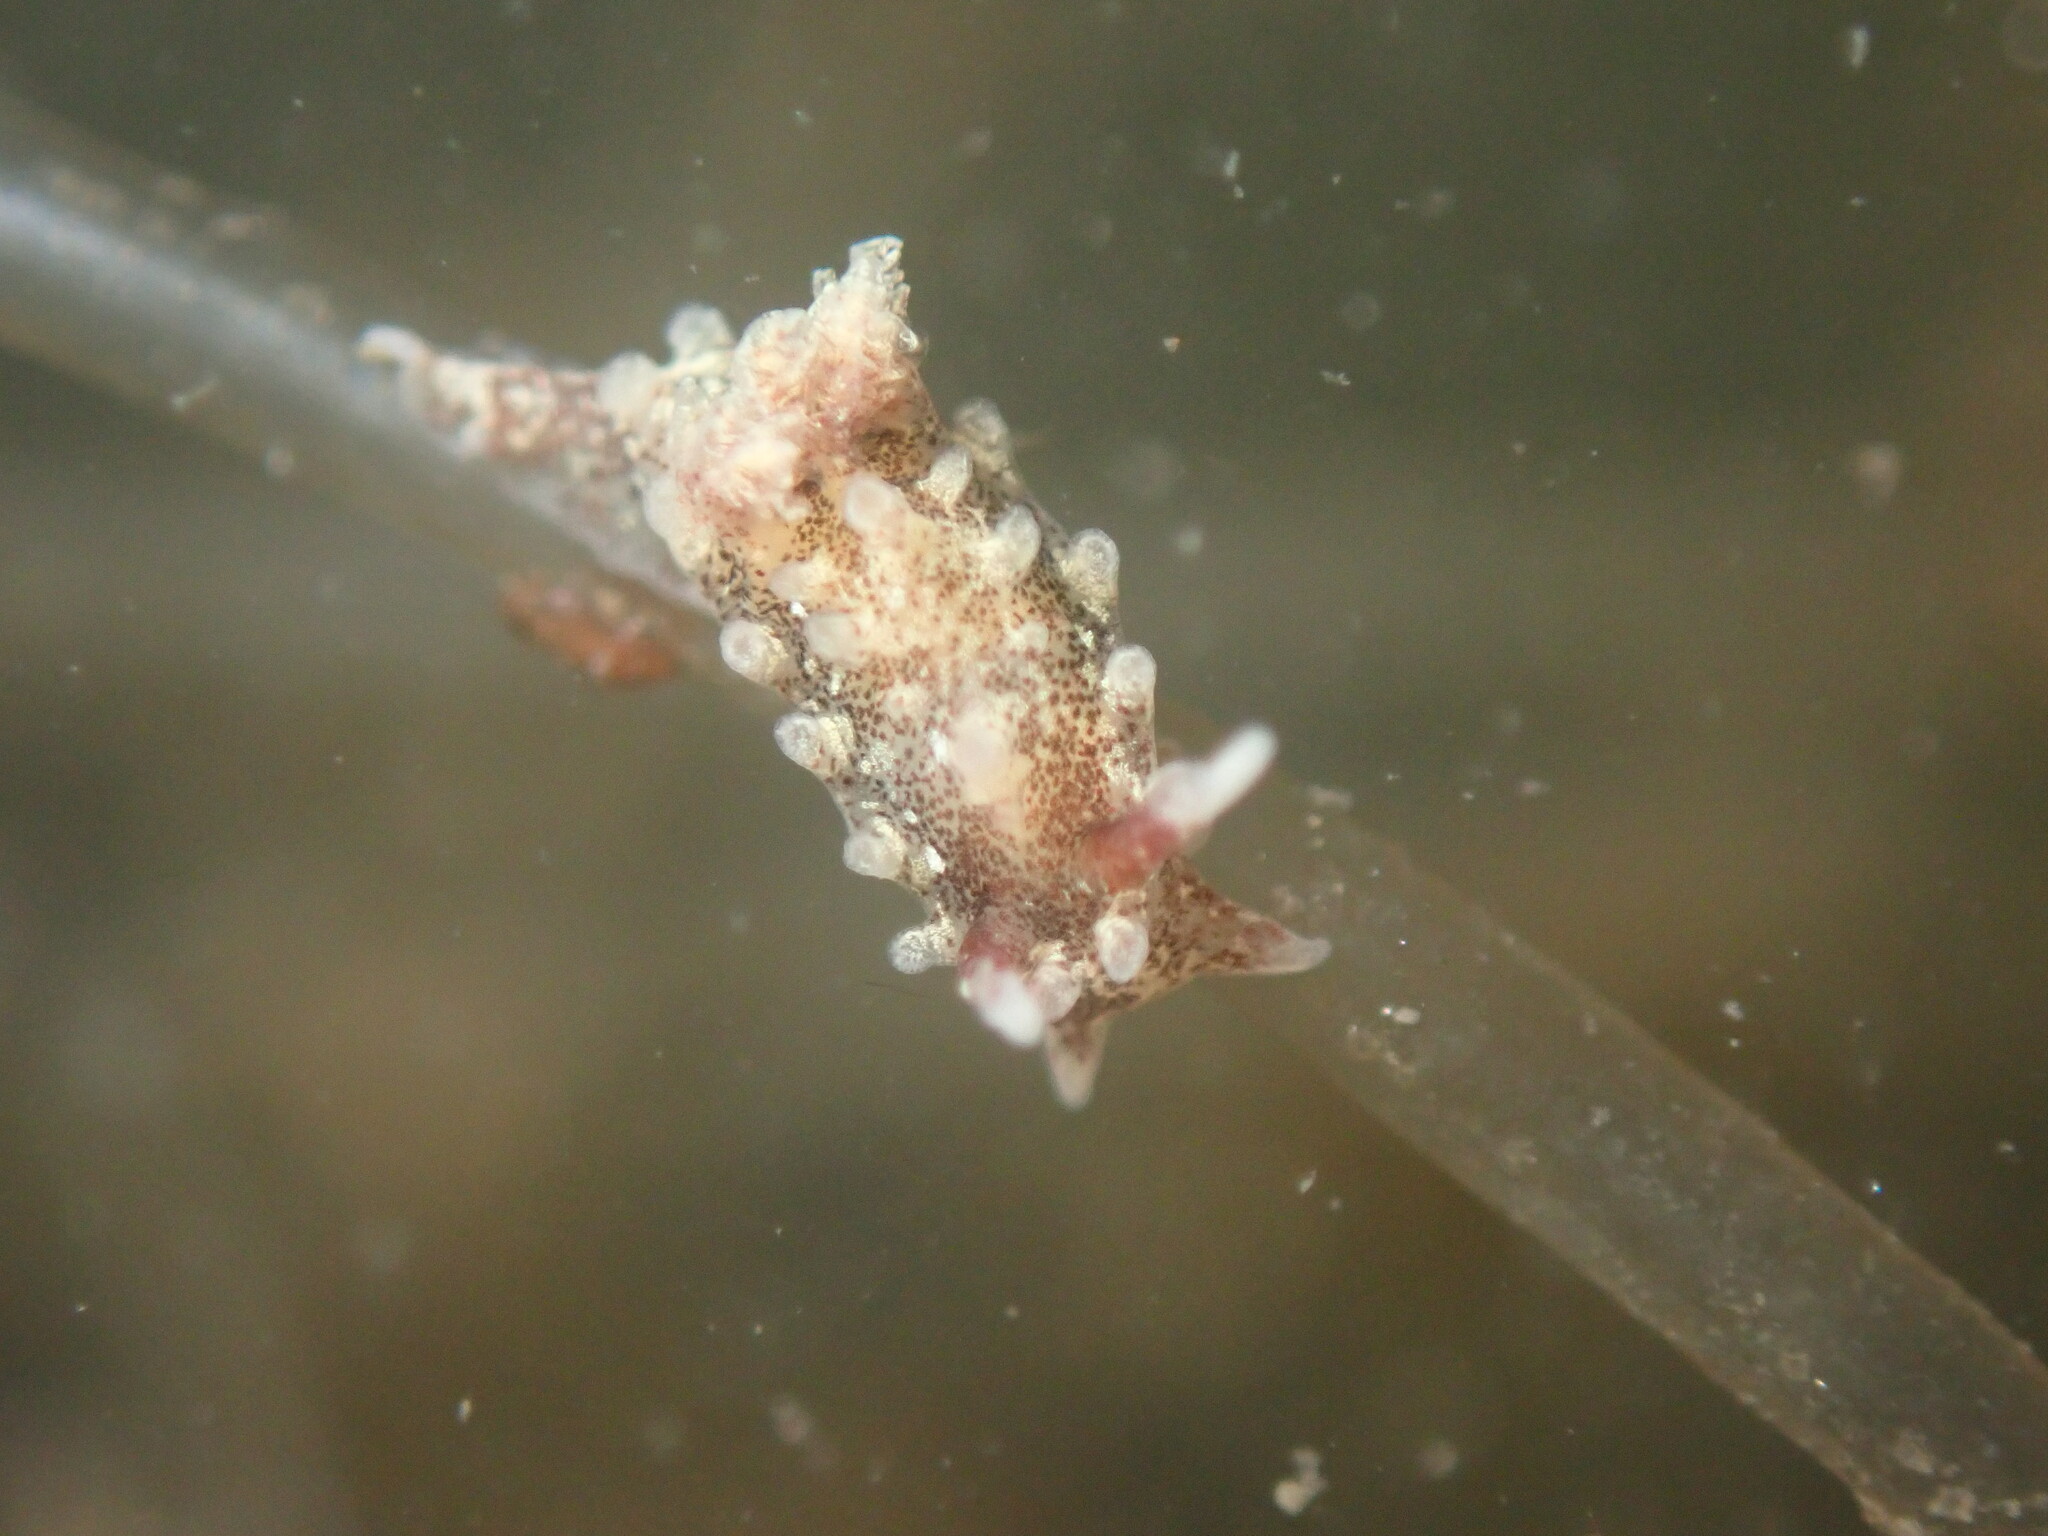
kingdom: Animalia
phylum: Mollusca
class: Gastropoda
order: Nudibranchia
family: Goniodorididae
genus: Okenia
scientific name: Okenia
